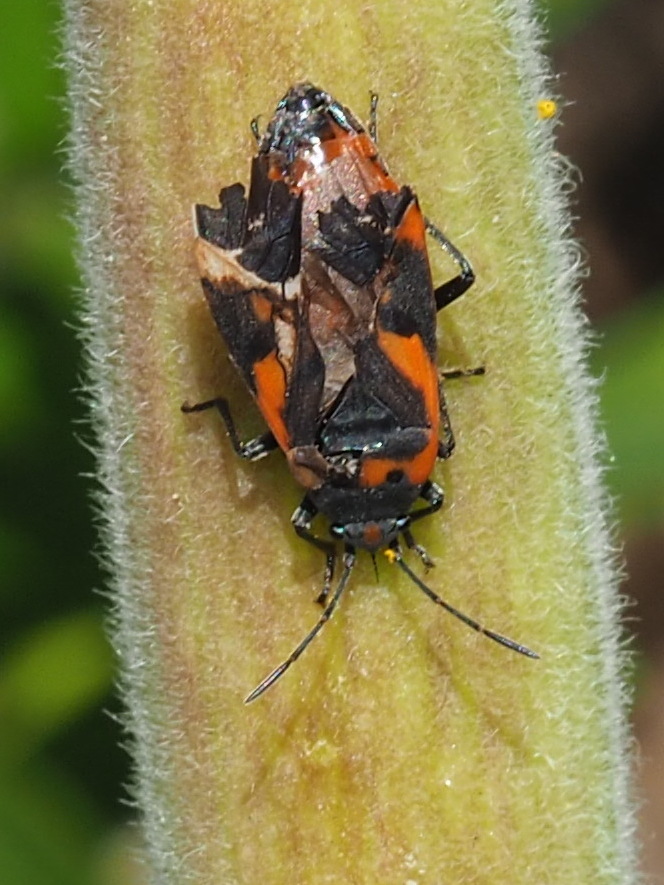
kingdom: Animalia
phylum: Arthropoda
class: Insecta
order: Hemiptera
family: Lygaeidae
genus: Lygaeus
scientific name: Lygaeus kalmii
